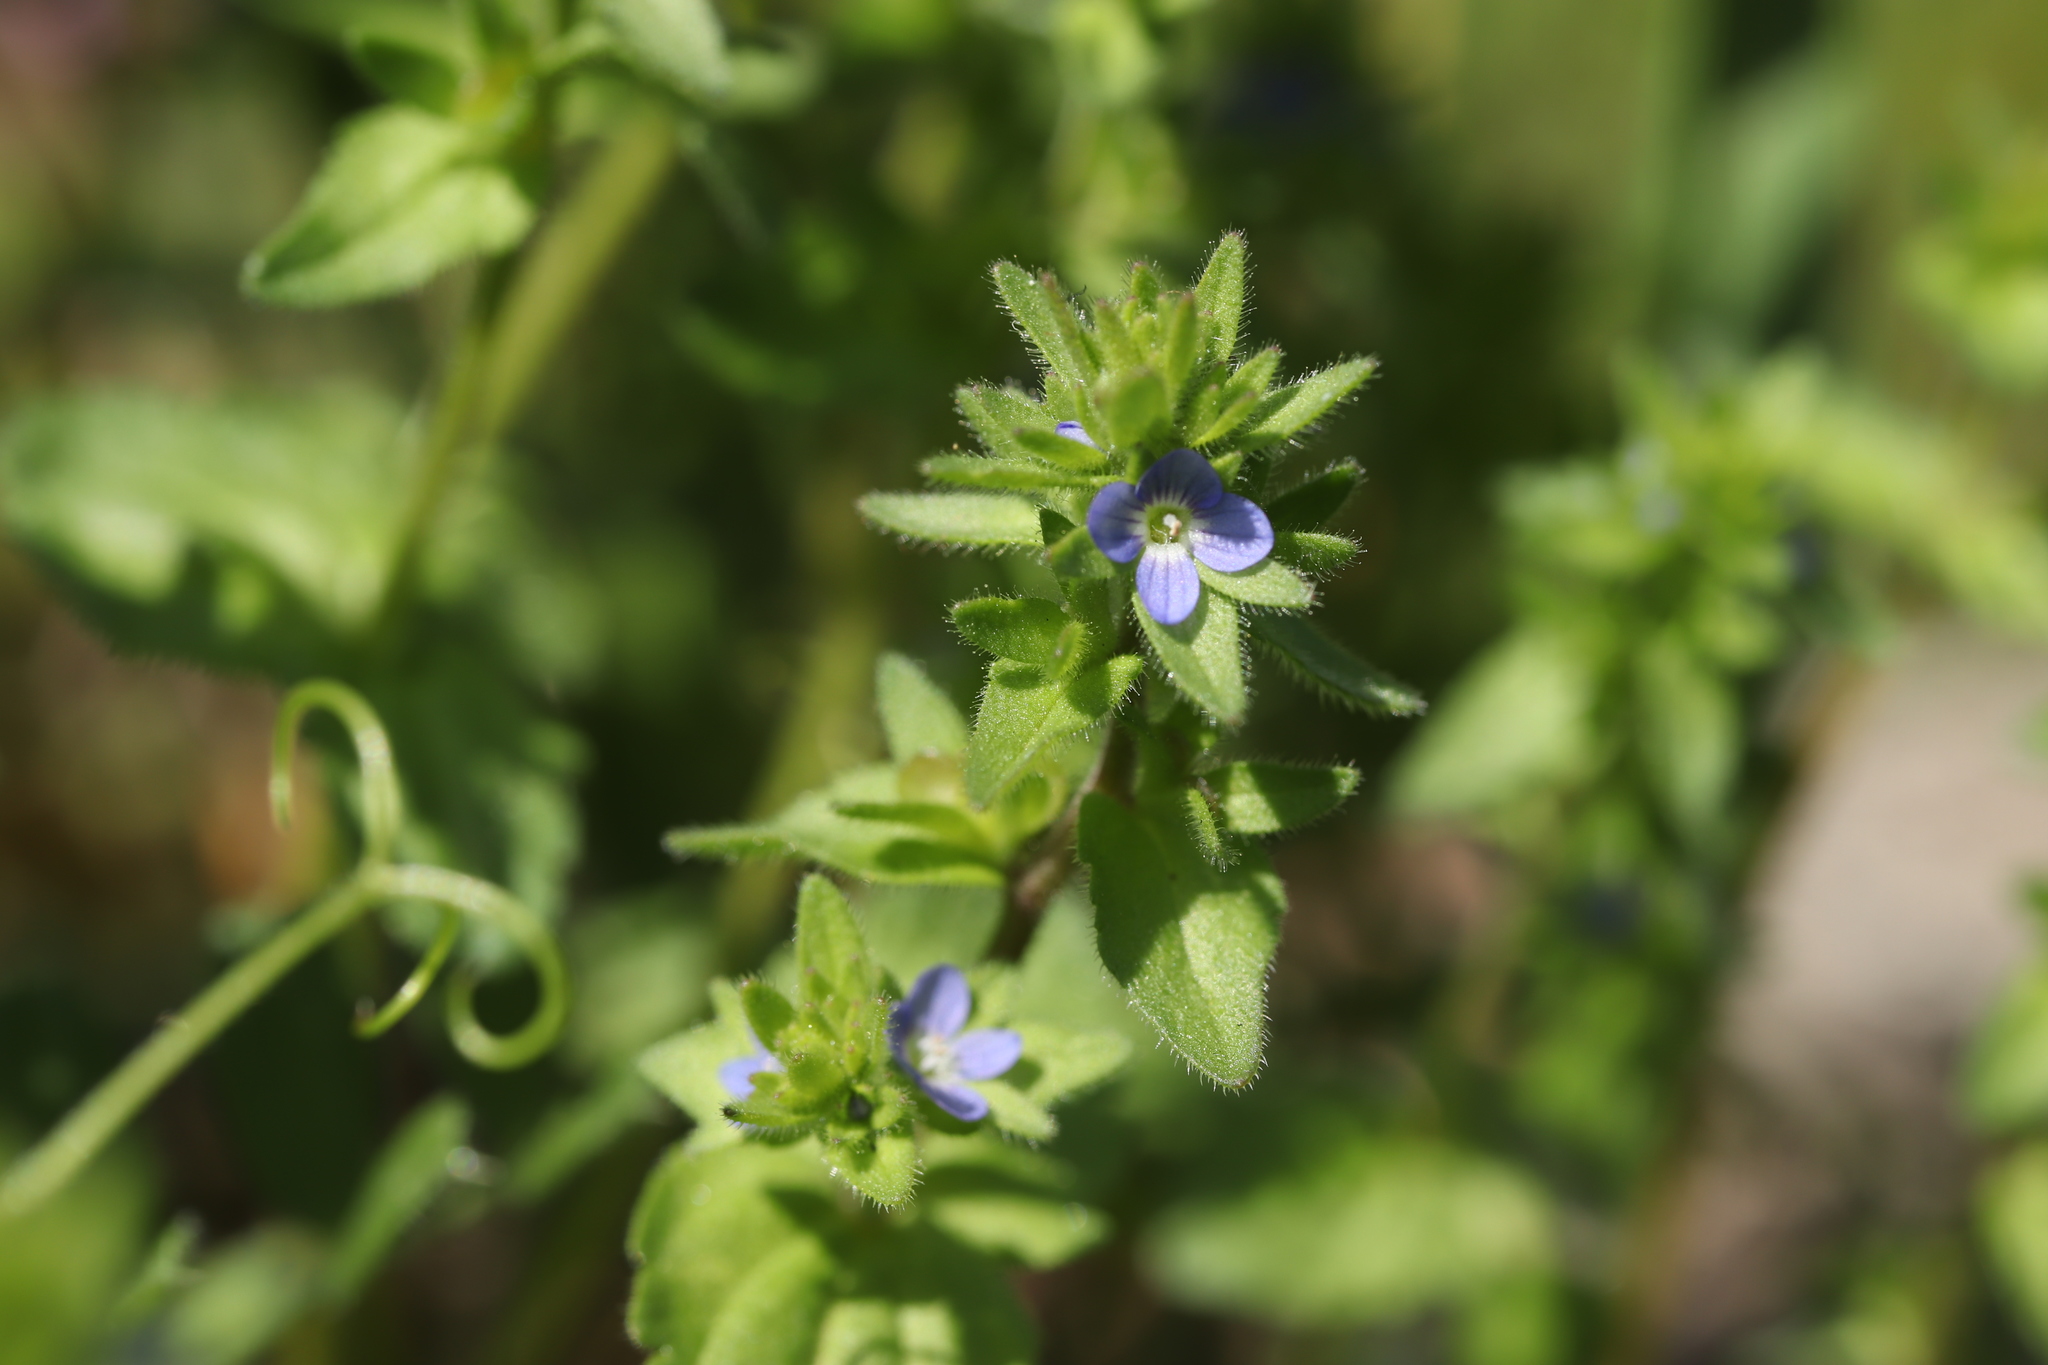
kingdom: Plantae
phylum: Tracheophyta
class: Magnoliopsida
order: Lamiales
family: Plantaginaceae
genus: Veronica
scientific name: Veronica arvensis
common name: Corn speedwell
